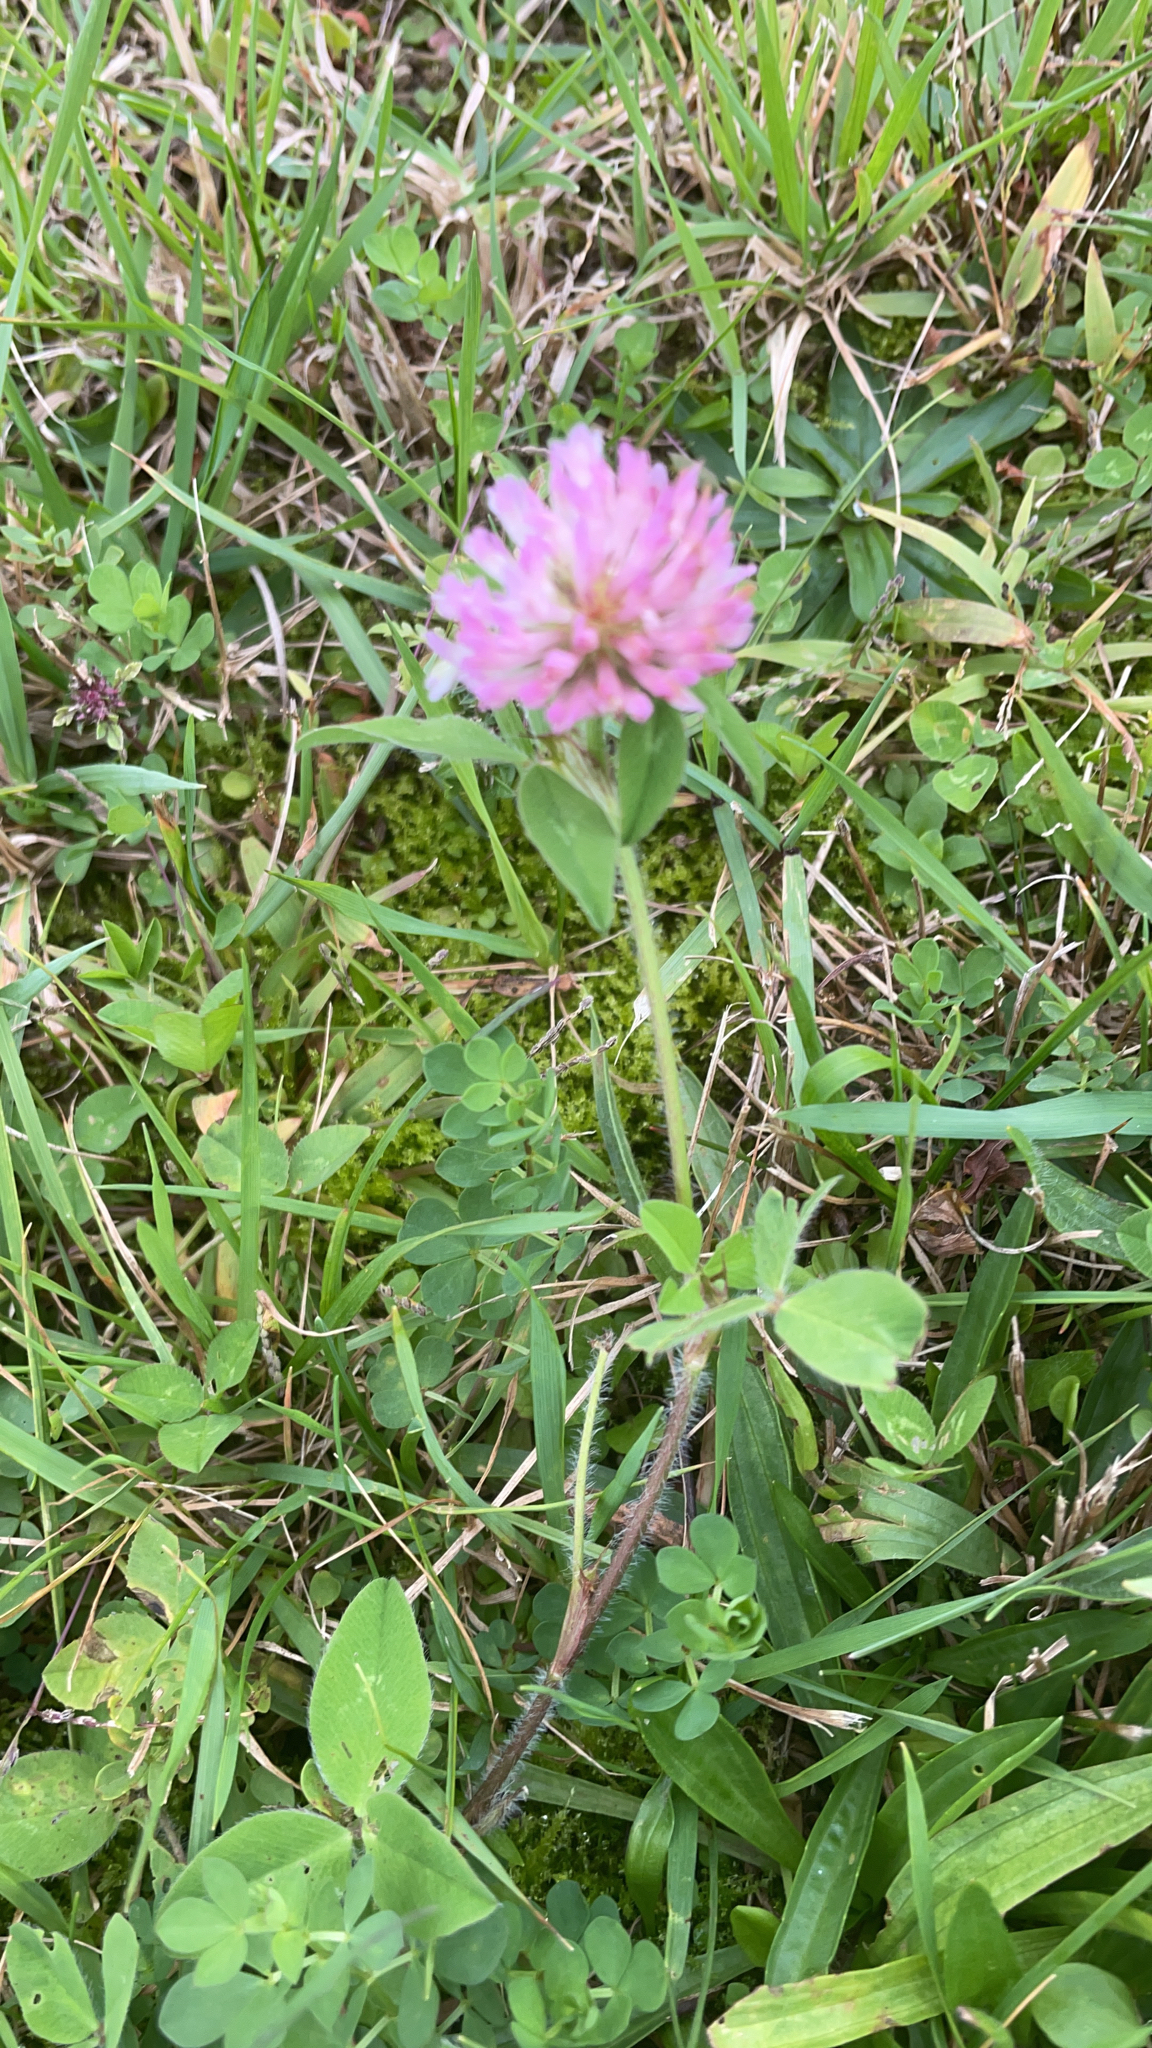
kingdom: Plantae
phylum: Tracheophyta
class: Magnoliopsida
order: Fabales
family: Fabaceae
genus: Trifolium
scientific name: Trifolium pratense
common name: Red clover
